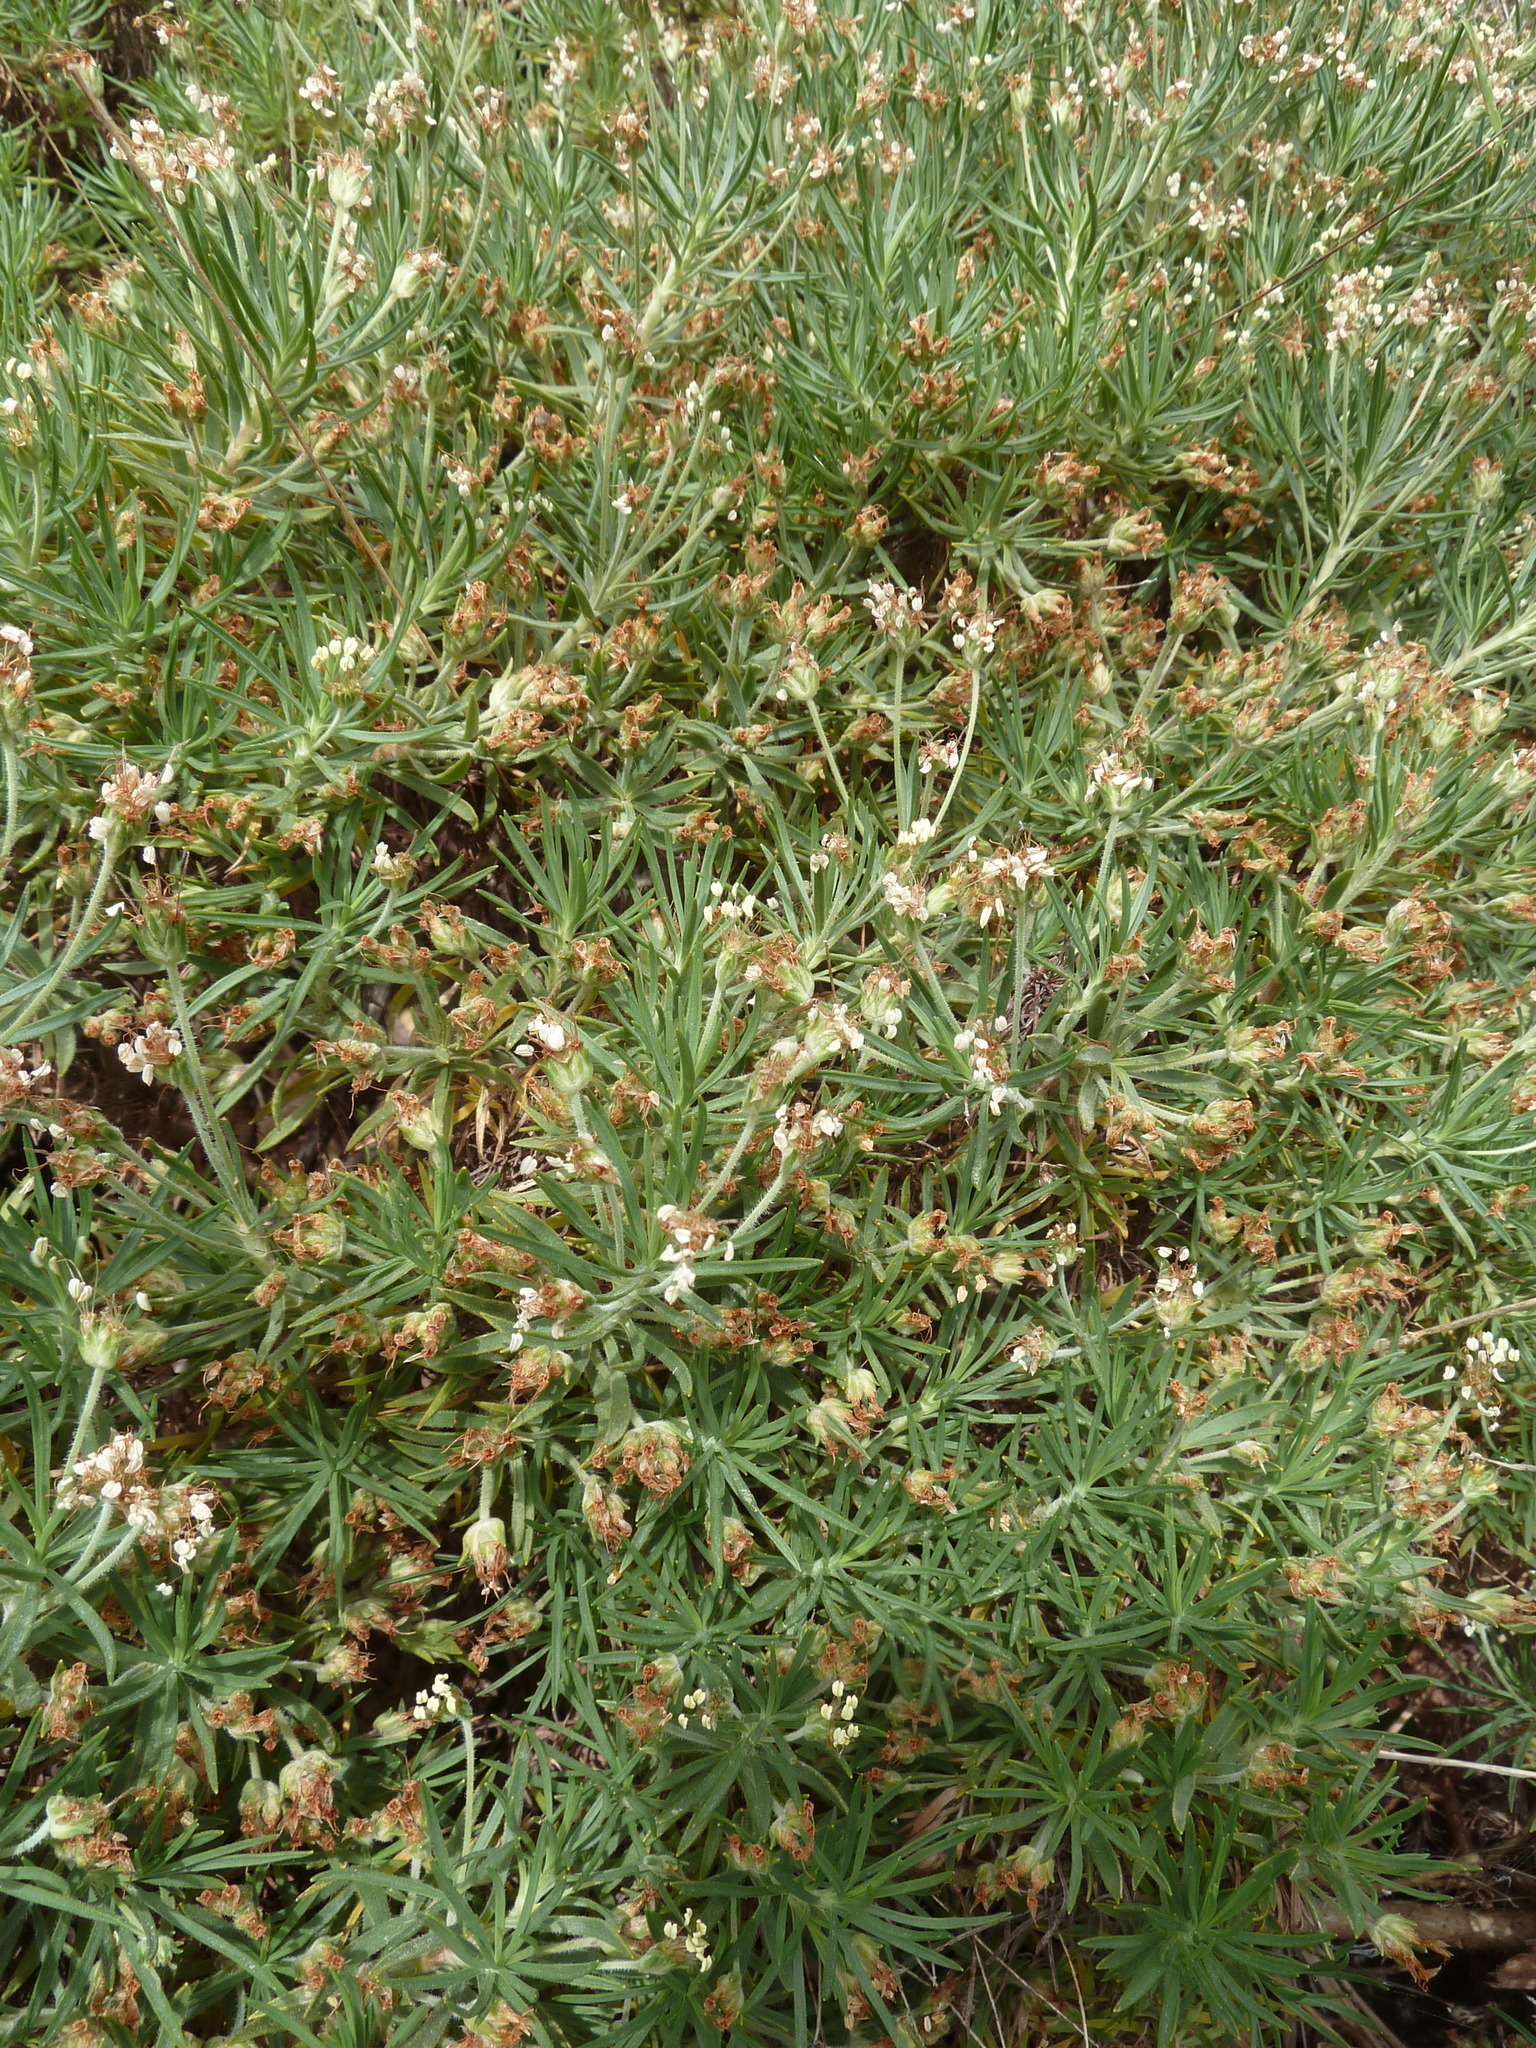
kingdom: Plantae
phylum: Tracheophyta
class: Magnoliopsida
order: Lamiales
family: Plantaginaceae
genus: Plantago
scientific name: Plantago arborescens
